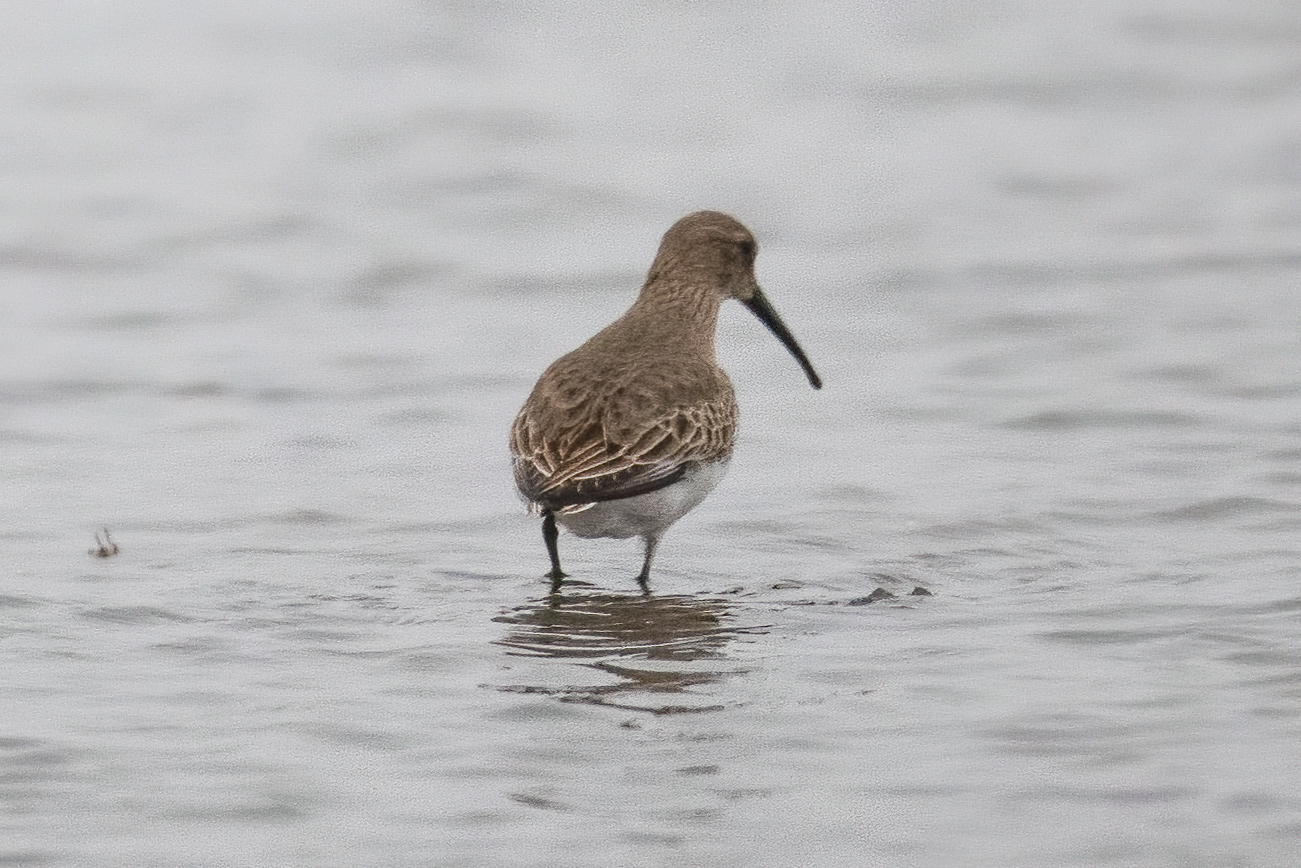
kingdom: Animalia
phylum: Chordata
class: Aves
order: Charadriiformes
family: Scolopacidae
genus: Calidris
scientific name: Calidris alpina
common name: Dunlin
